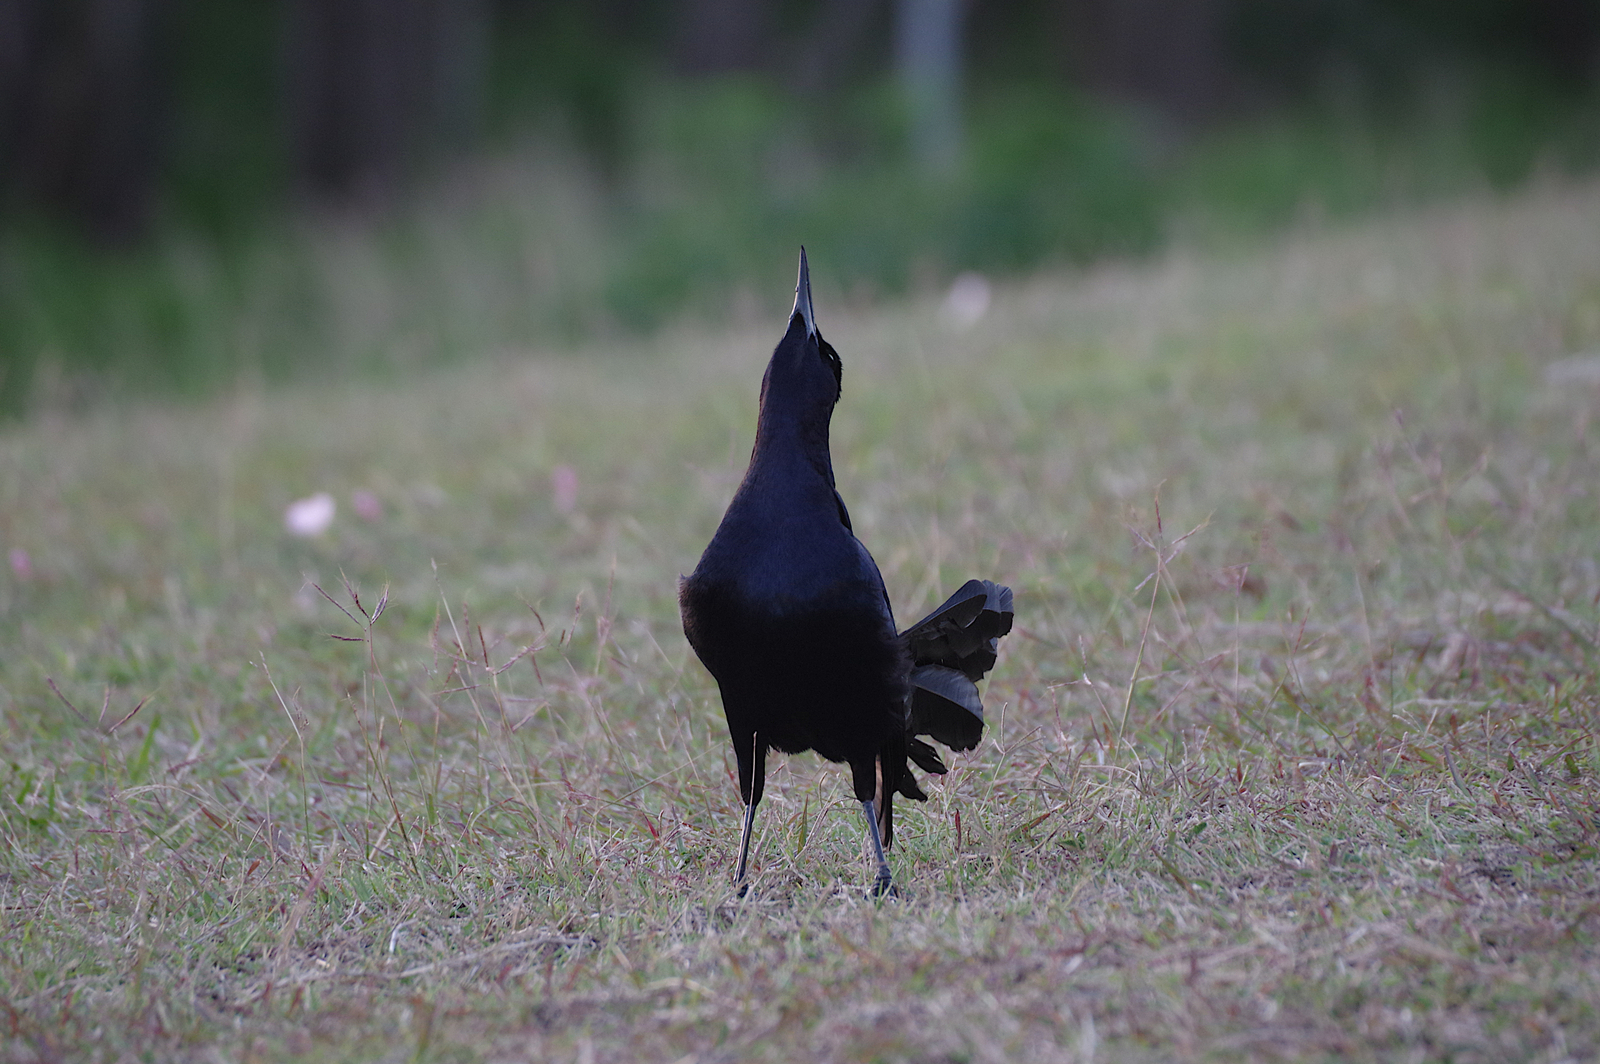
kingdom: Animalia
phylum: Chordata
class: Aves
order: Passeriformes
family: Icteridae
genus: Quiscalus
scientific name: Quiscalus mexicanus
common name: Great-tailed grackle
